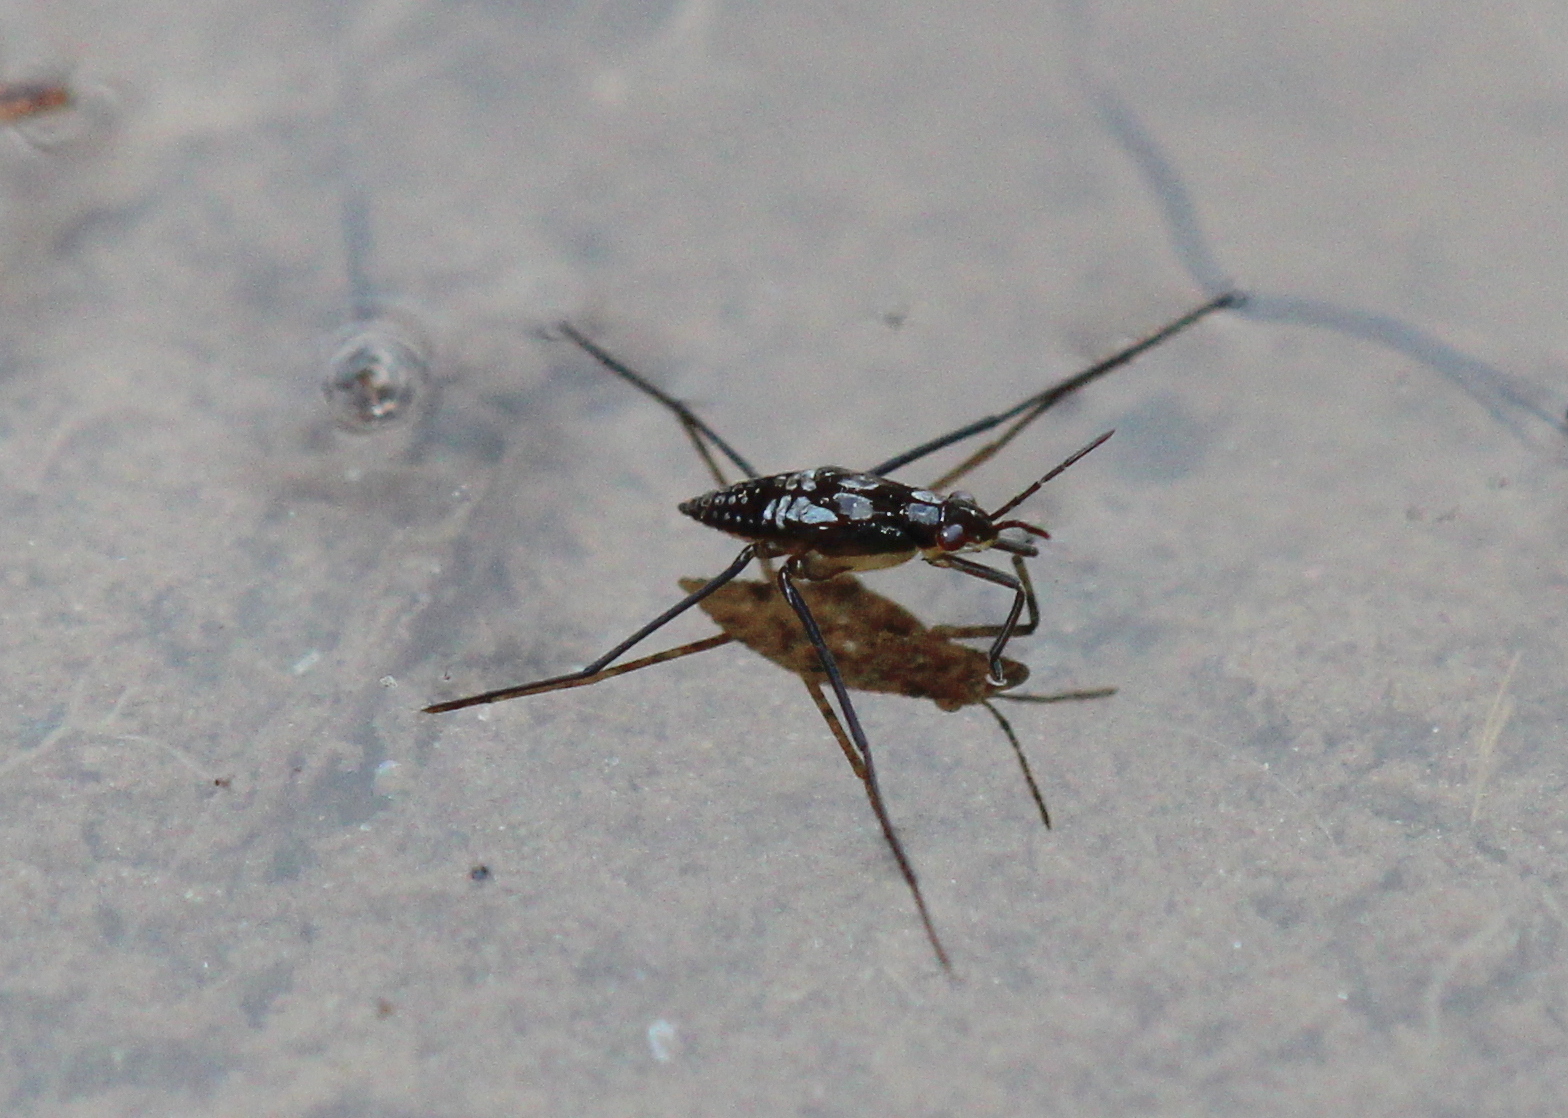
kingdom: Animalia
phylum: Arthropoda
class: Insecta
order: Hemiptera
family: Gerridae
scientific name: Gerridae
